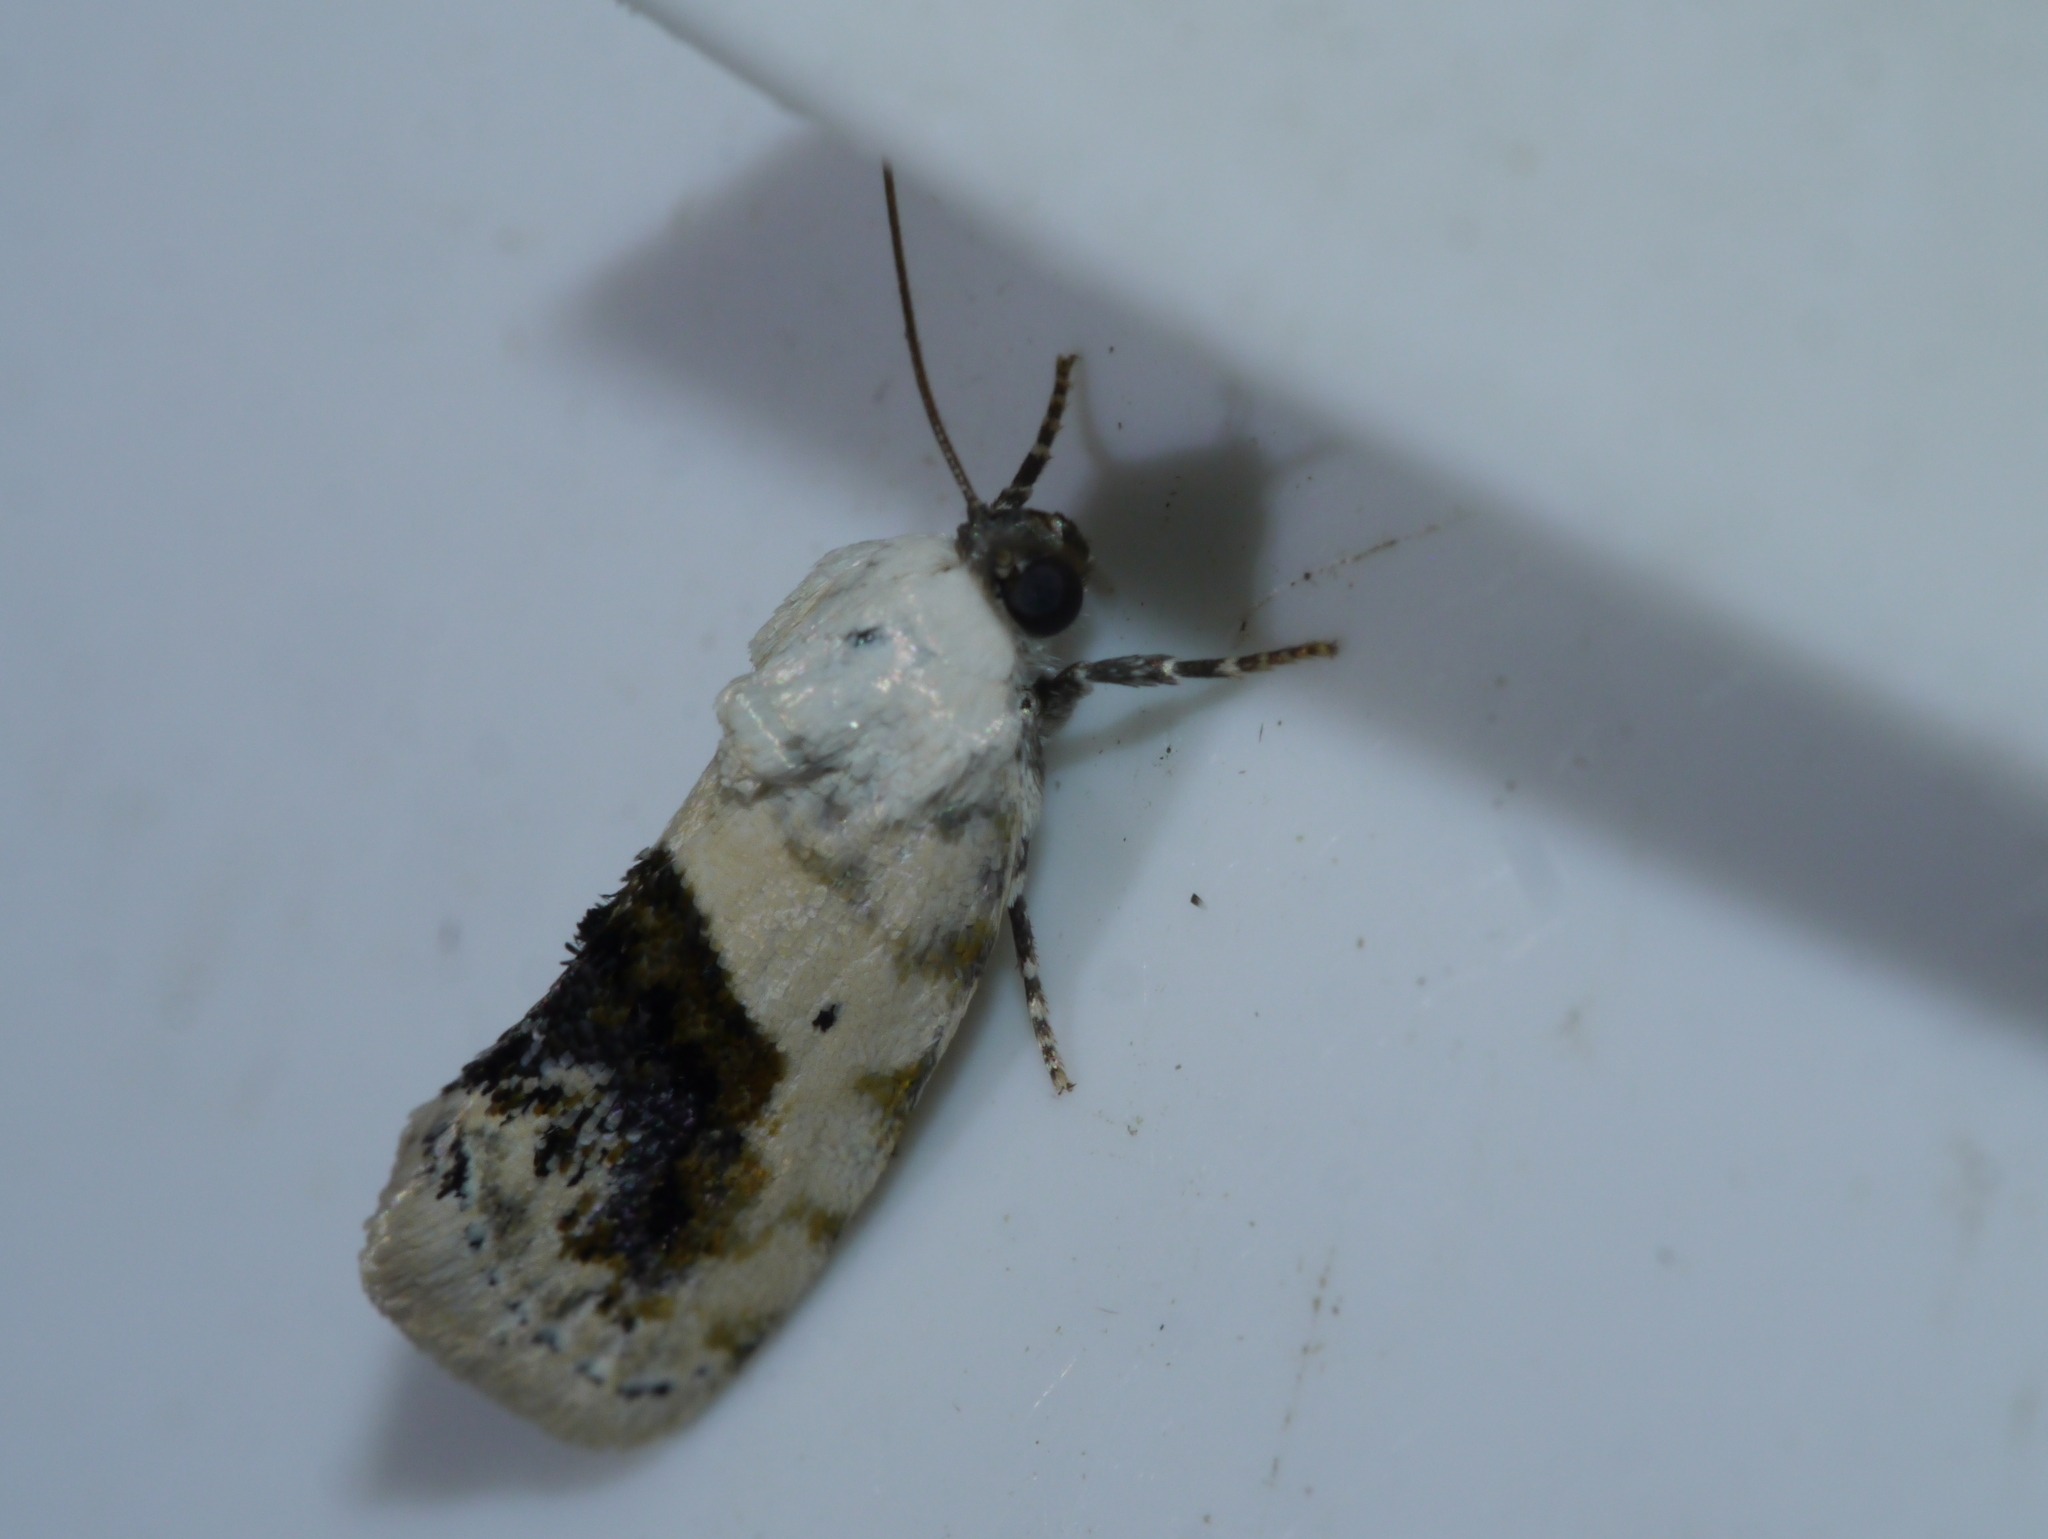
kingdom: Animalia
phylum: Arthropoda
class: Insecta
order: Lepidoptera
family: Noctuidae
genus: Acontia
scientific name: Acontia erastrioides
